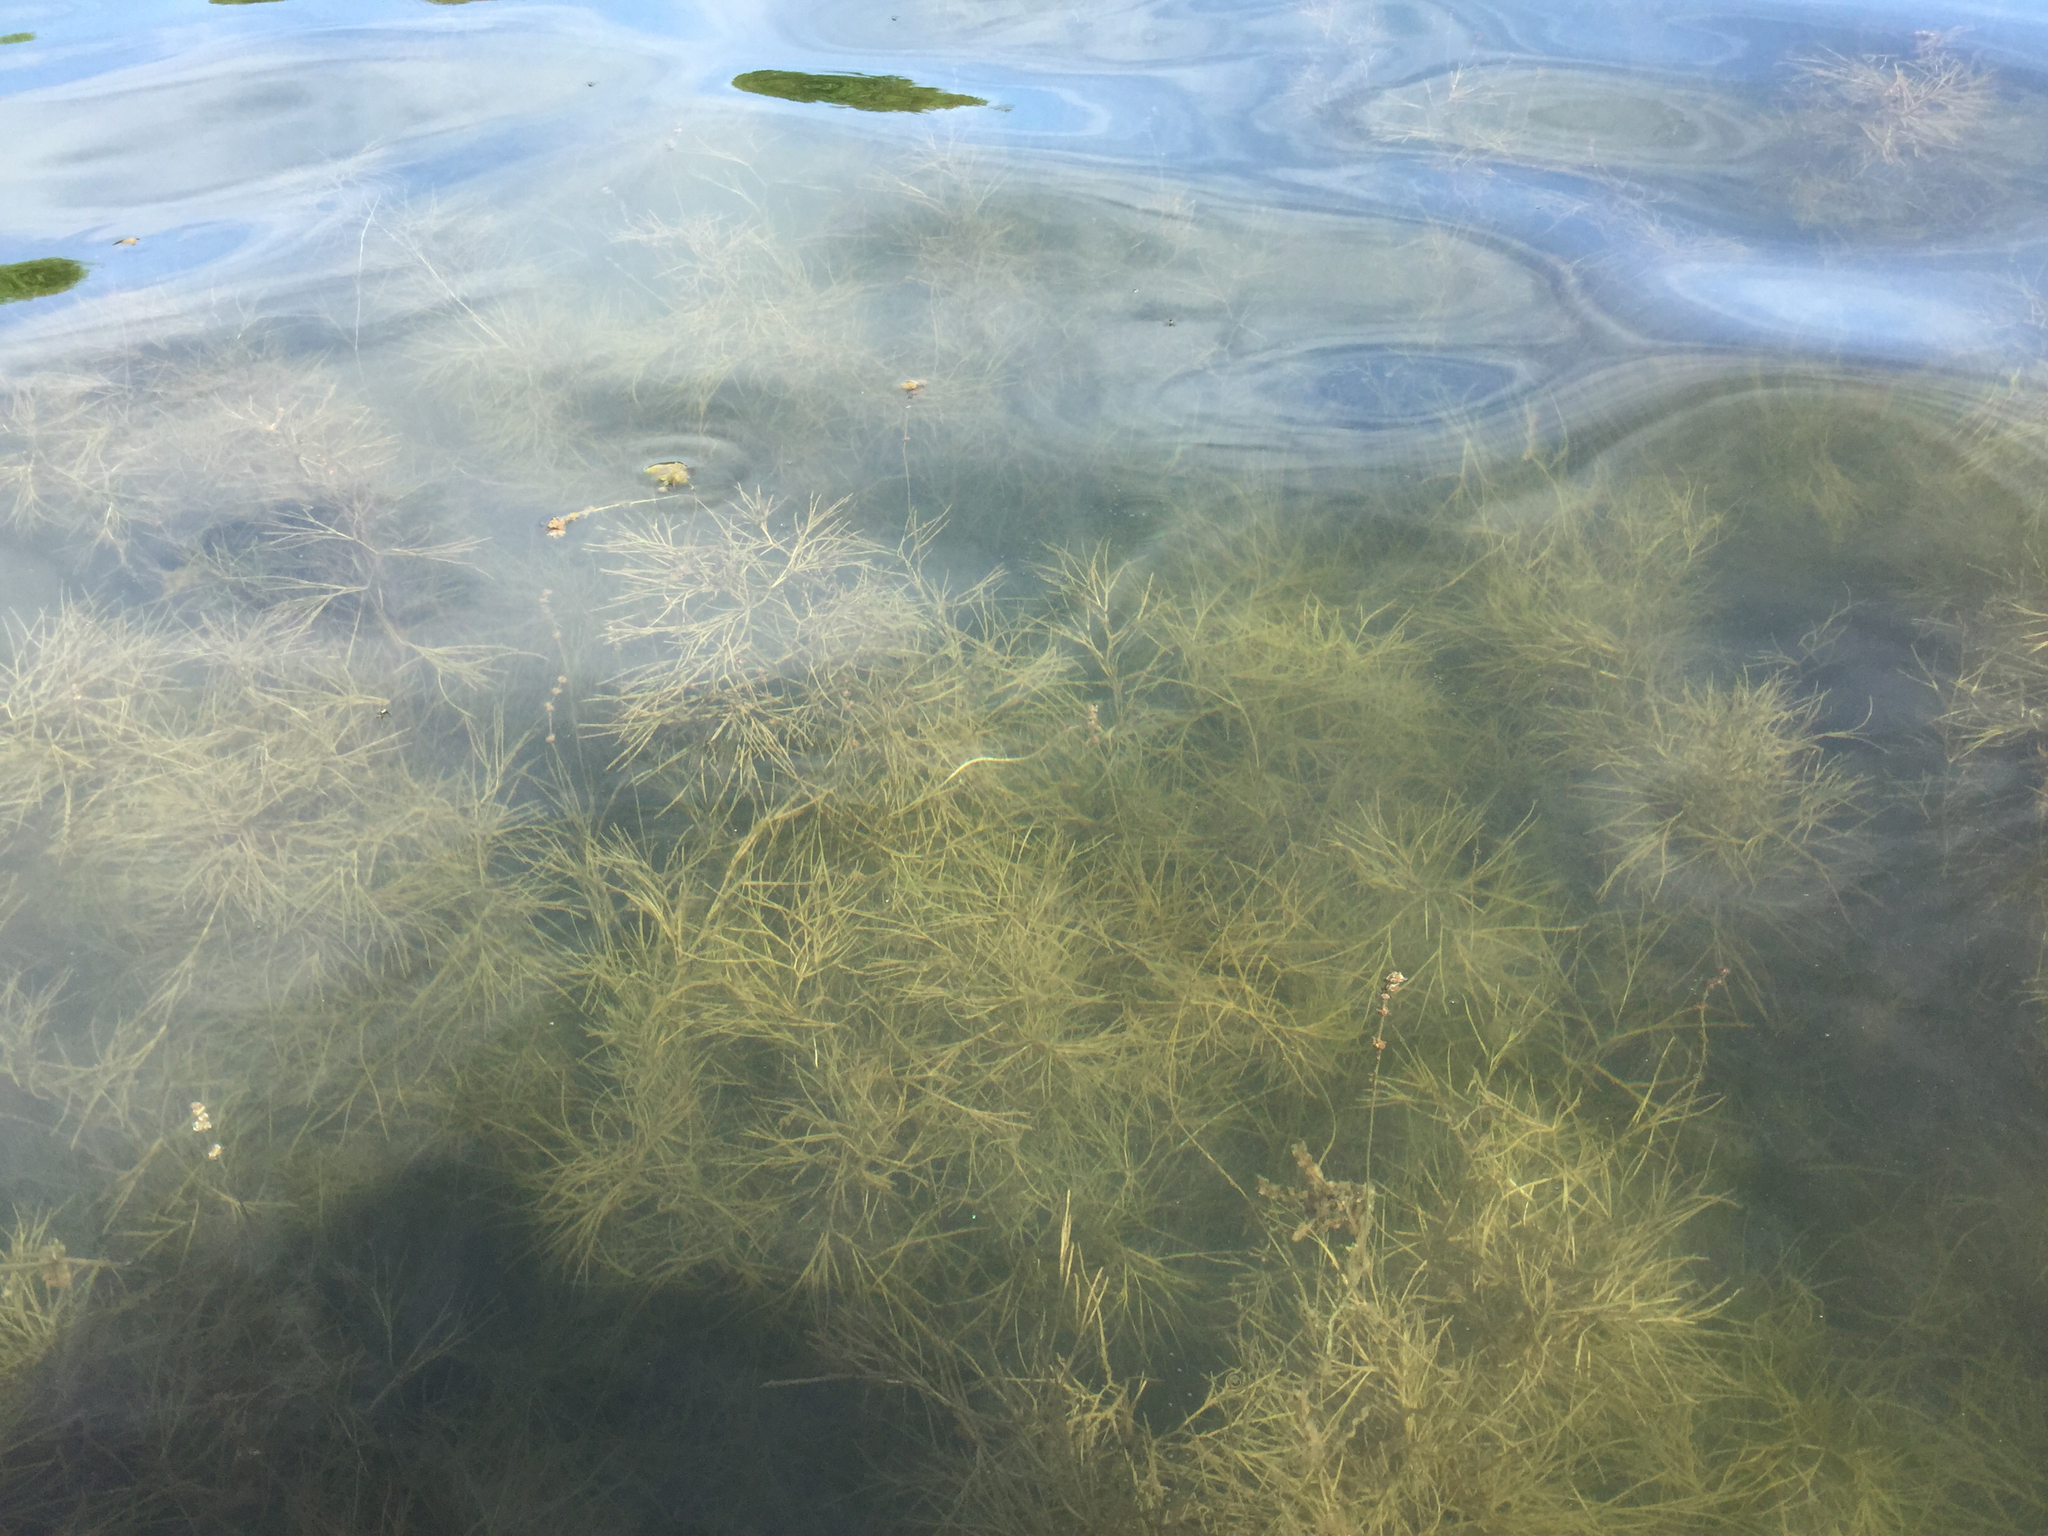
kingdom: Plantae
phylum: Tracheophyta
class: Liliopsida
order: Alismatales
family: Potamogetonaceae
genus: Stuckenia
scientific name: Stuckenia pectinata
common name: Sago pondweed
